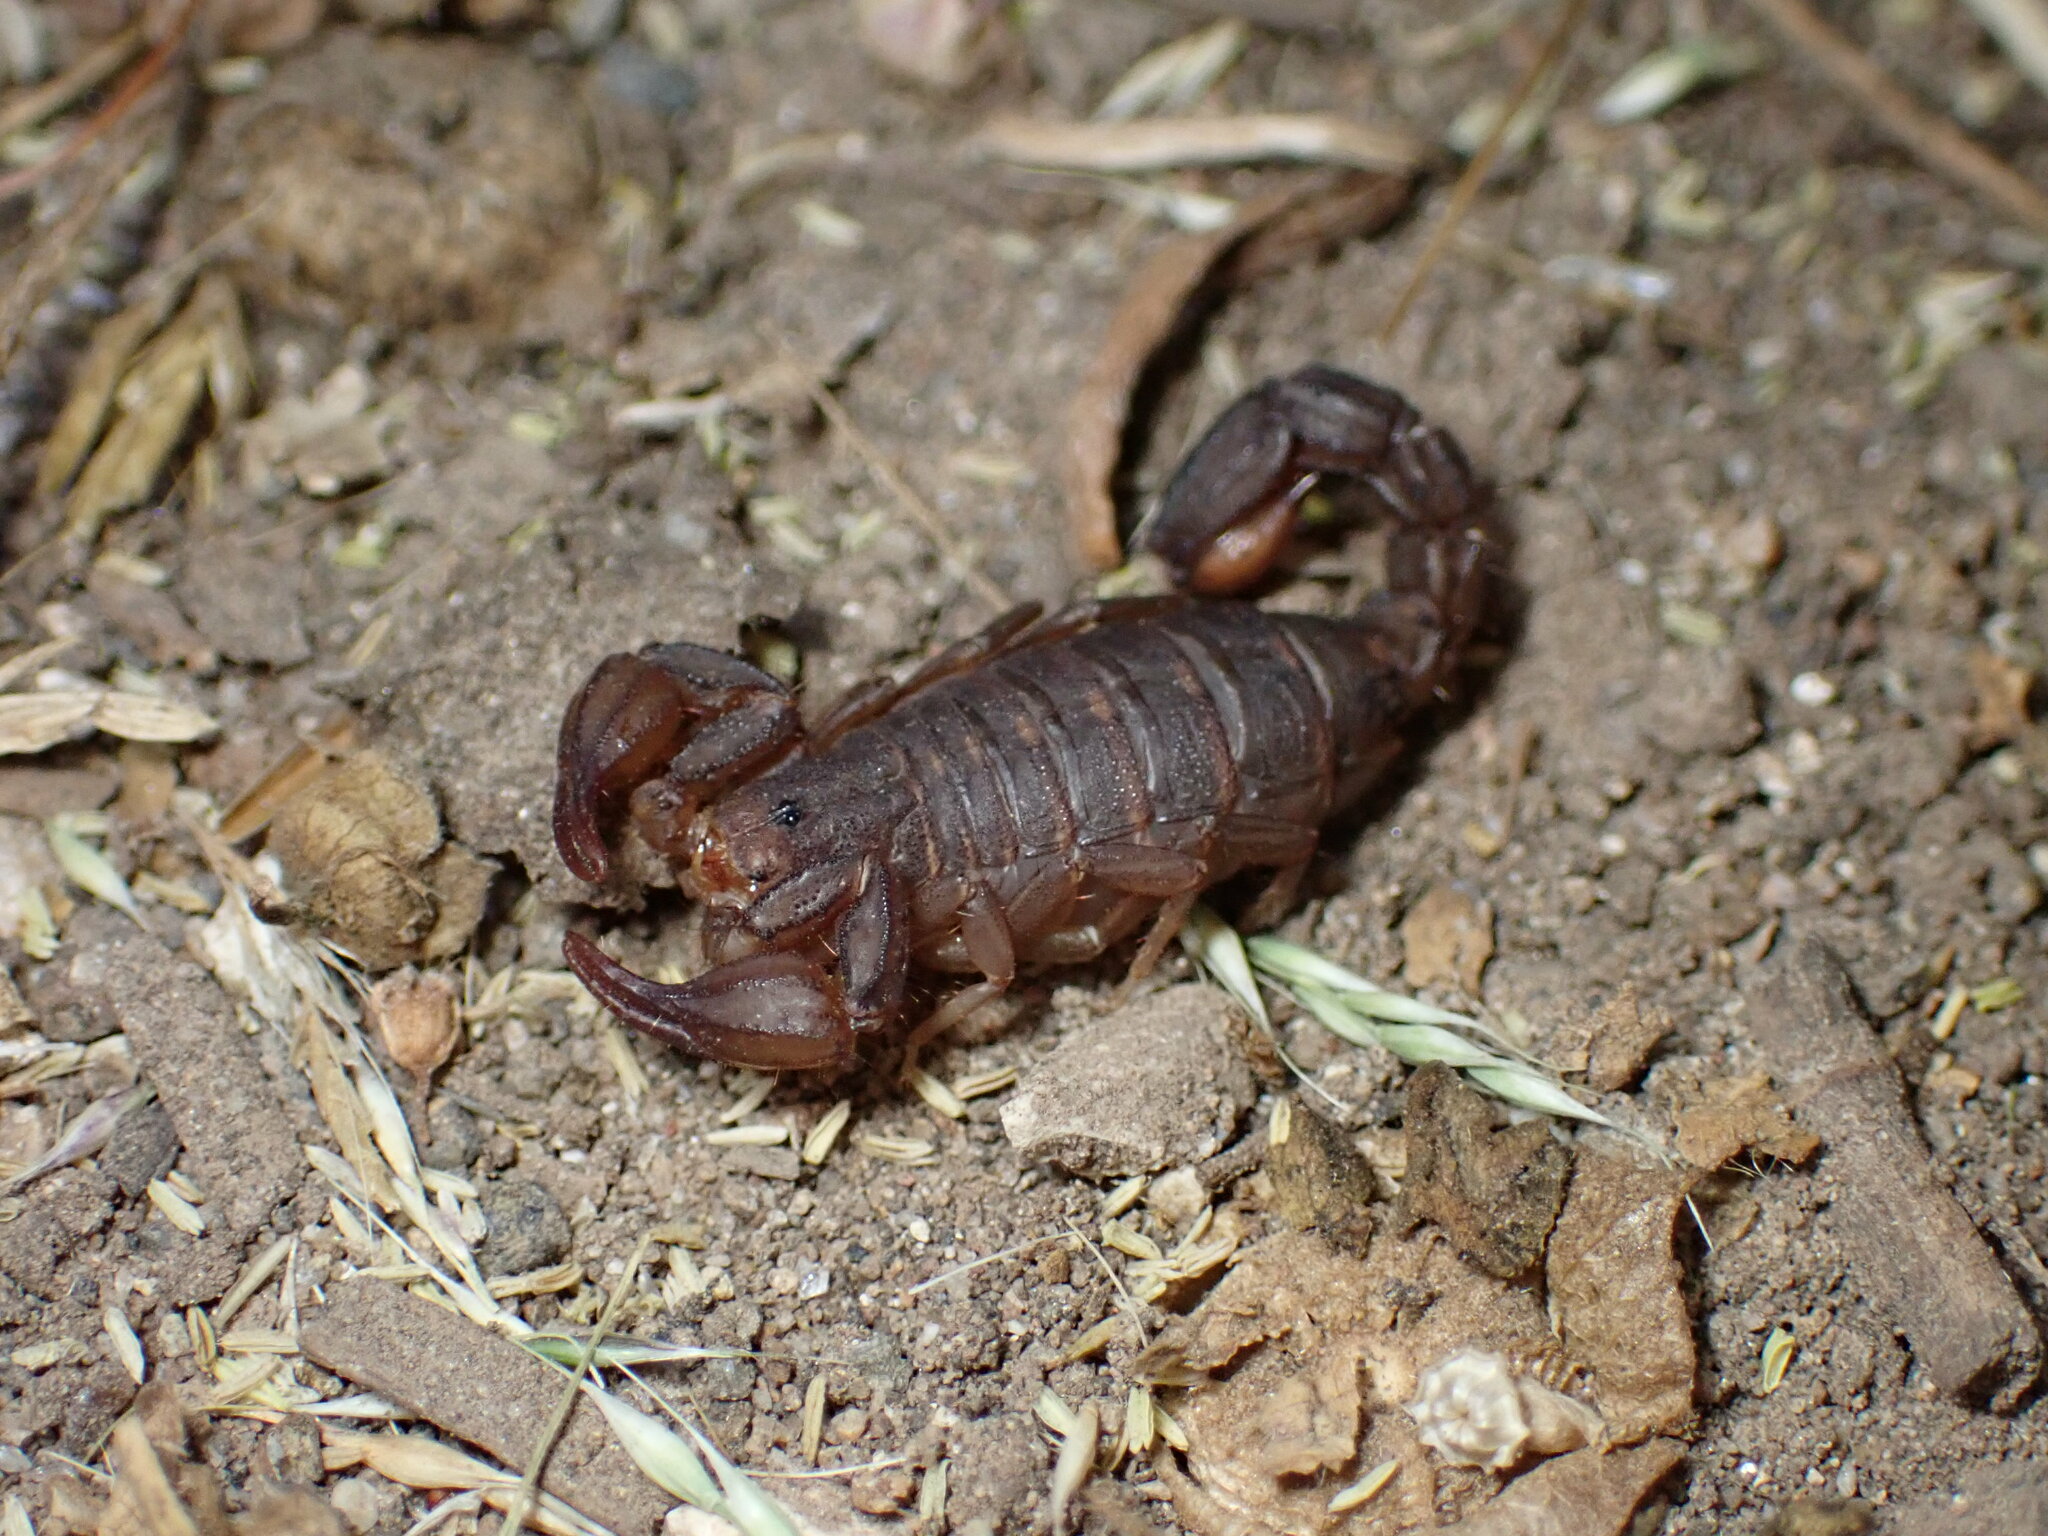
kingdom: Animalia
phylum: Arthropoda
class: Arachnida
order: Scorpiones
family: Vaejovidae
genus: Catalinia
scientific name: Catalinia thompsoni
